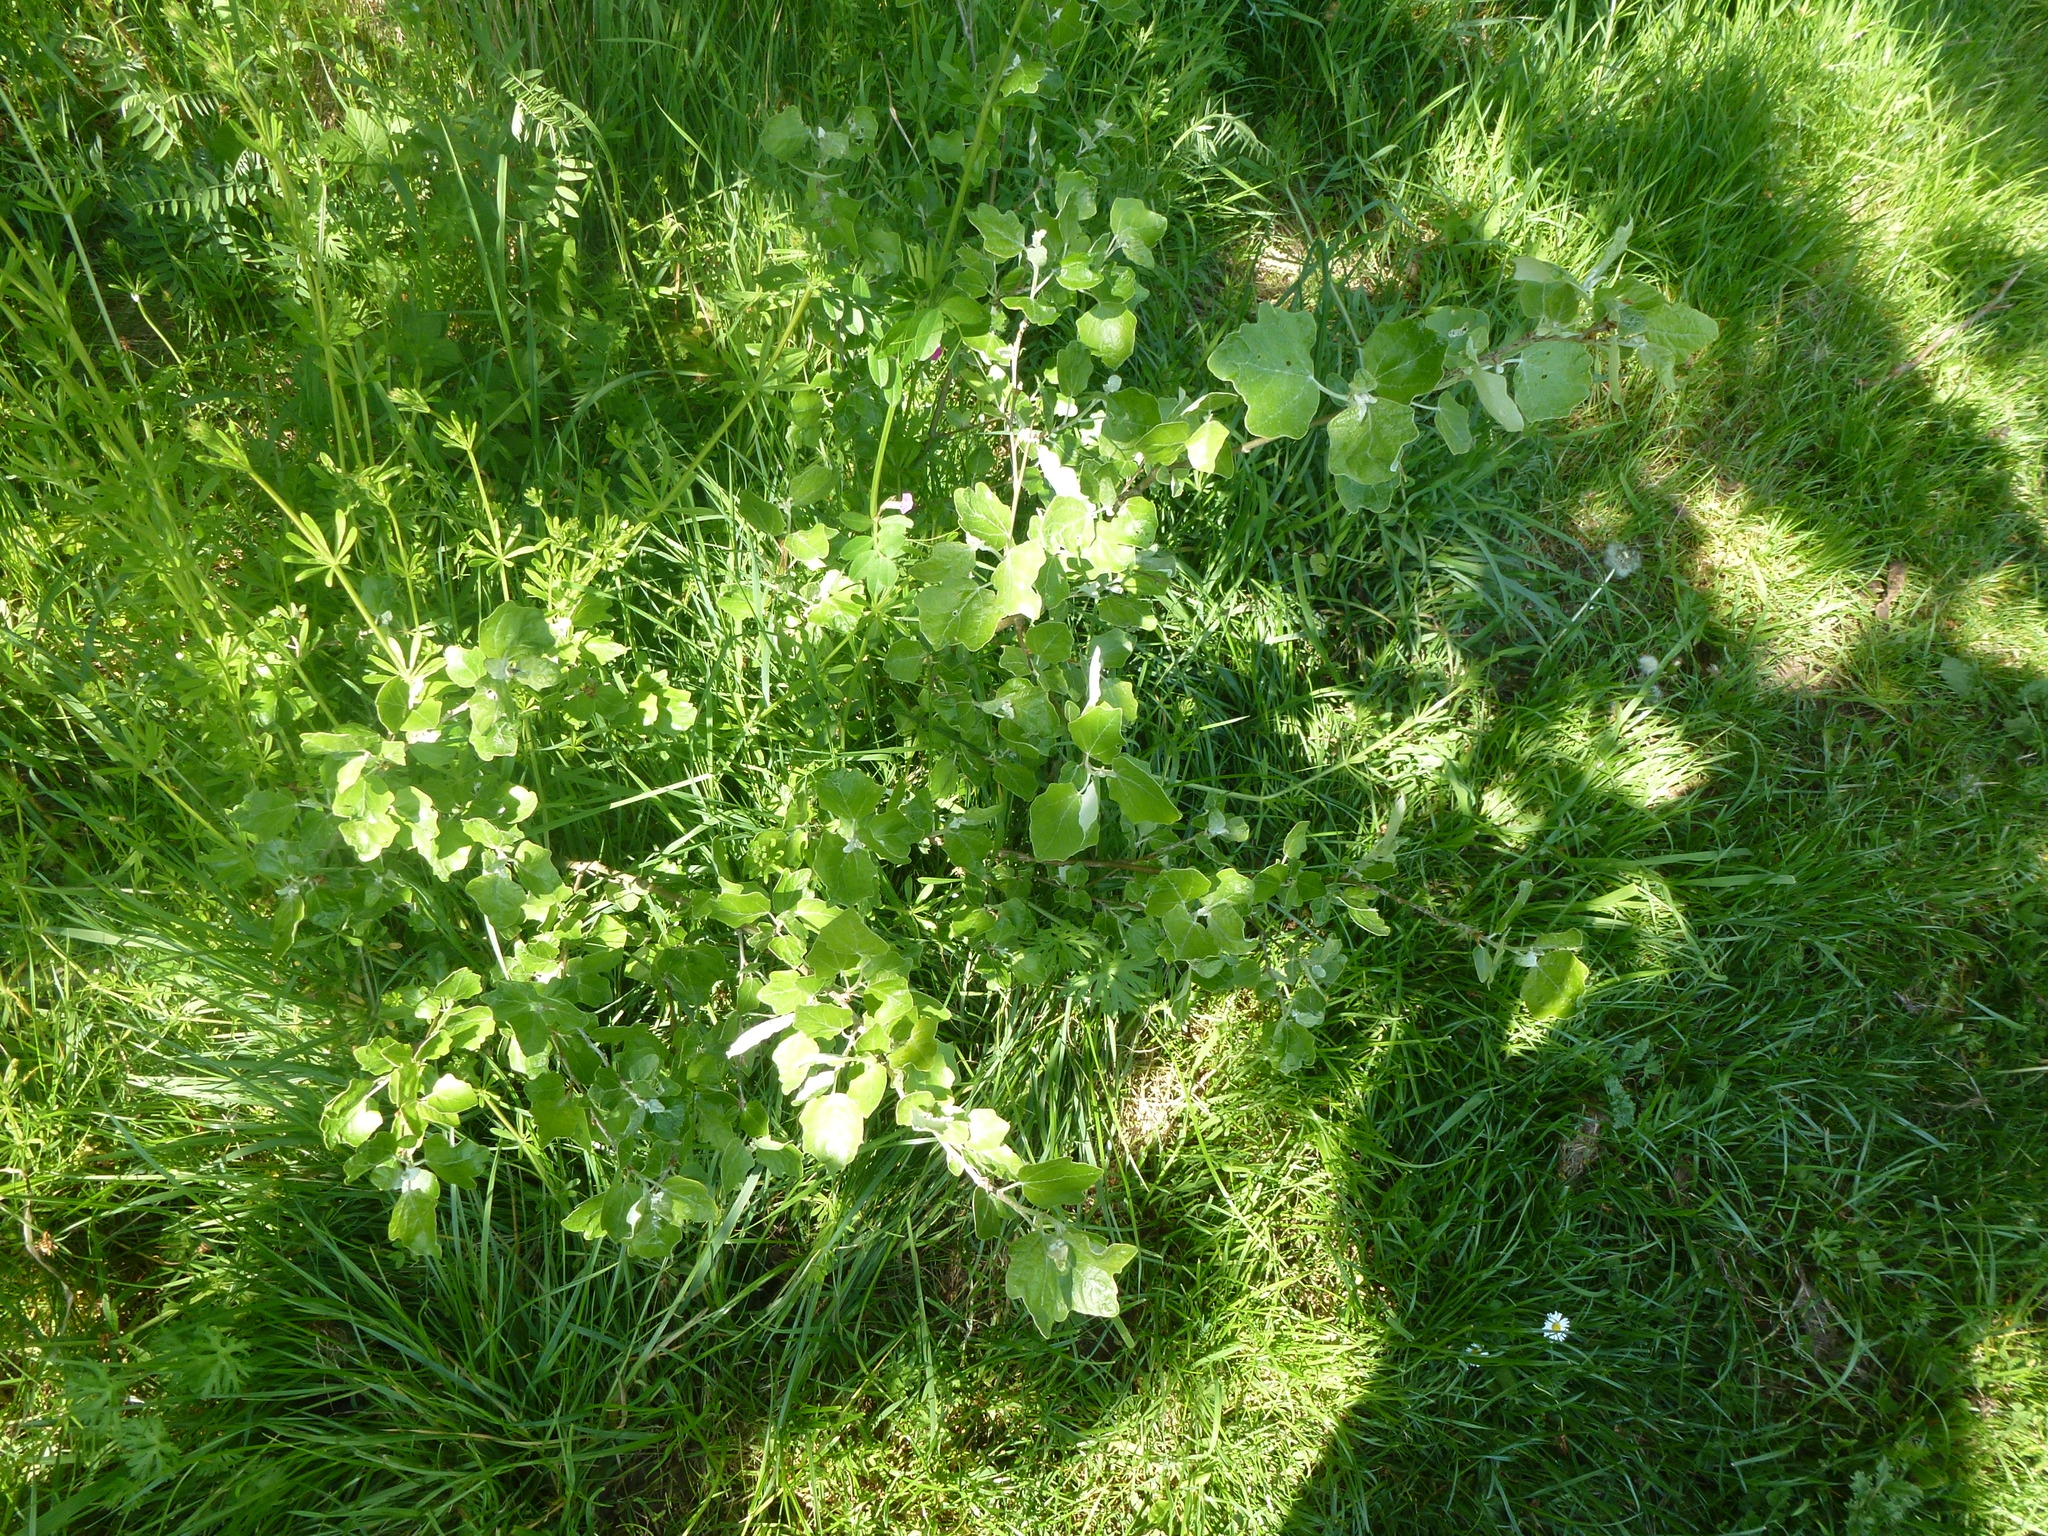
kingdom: Plantae
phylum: Tracheophyta
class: Magnoliopsida
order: Malpighiales
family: Salicaceae
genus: Populus
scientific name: Populus alba
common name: White poplar
